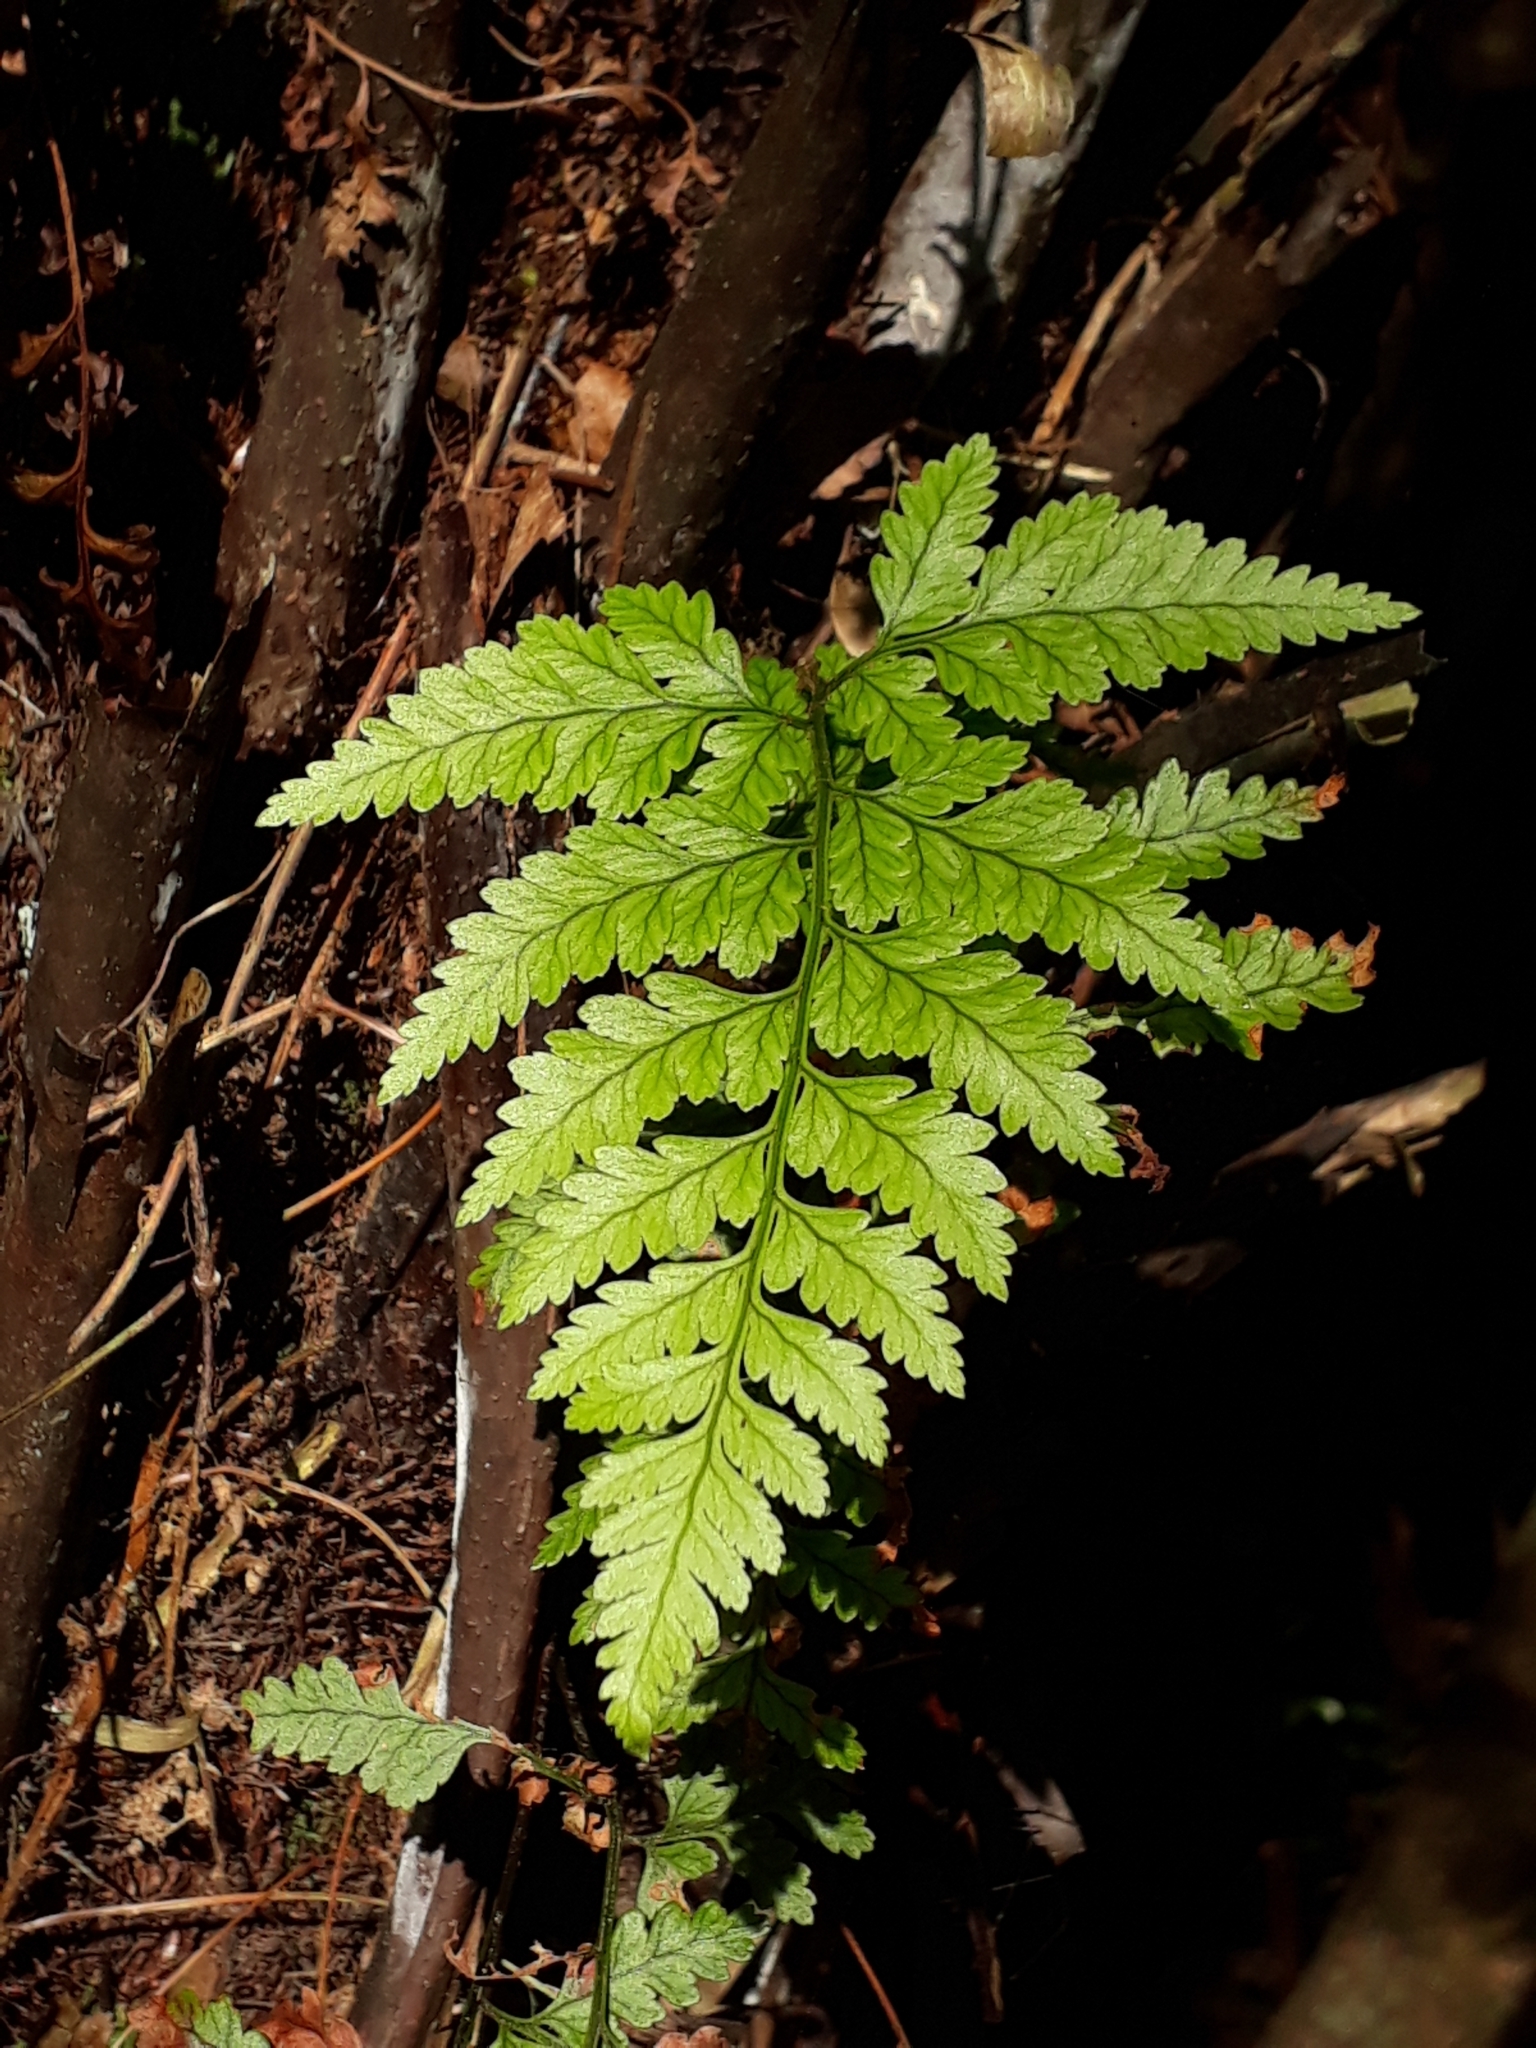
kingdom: Plantae
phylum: Tracheophyta
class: Polypodiopsida
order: Polypodiales
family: Dryopteridaceae
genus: Rumohra
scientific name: Rumohra adiantiformis
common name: Leather fern
